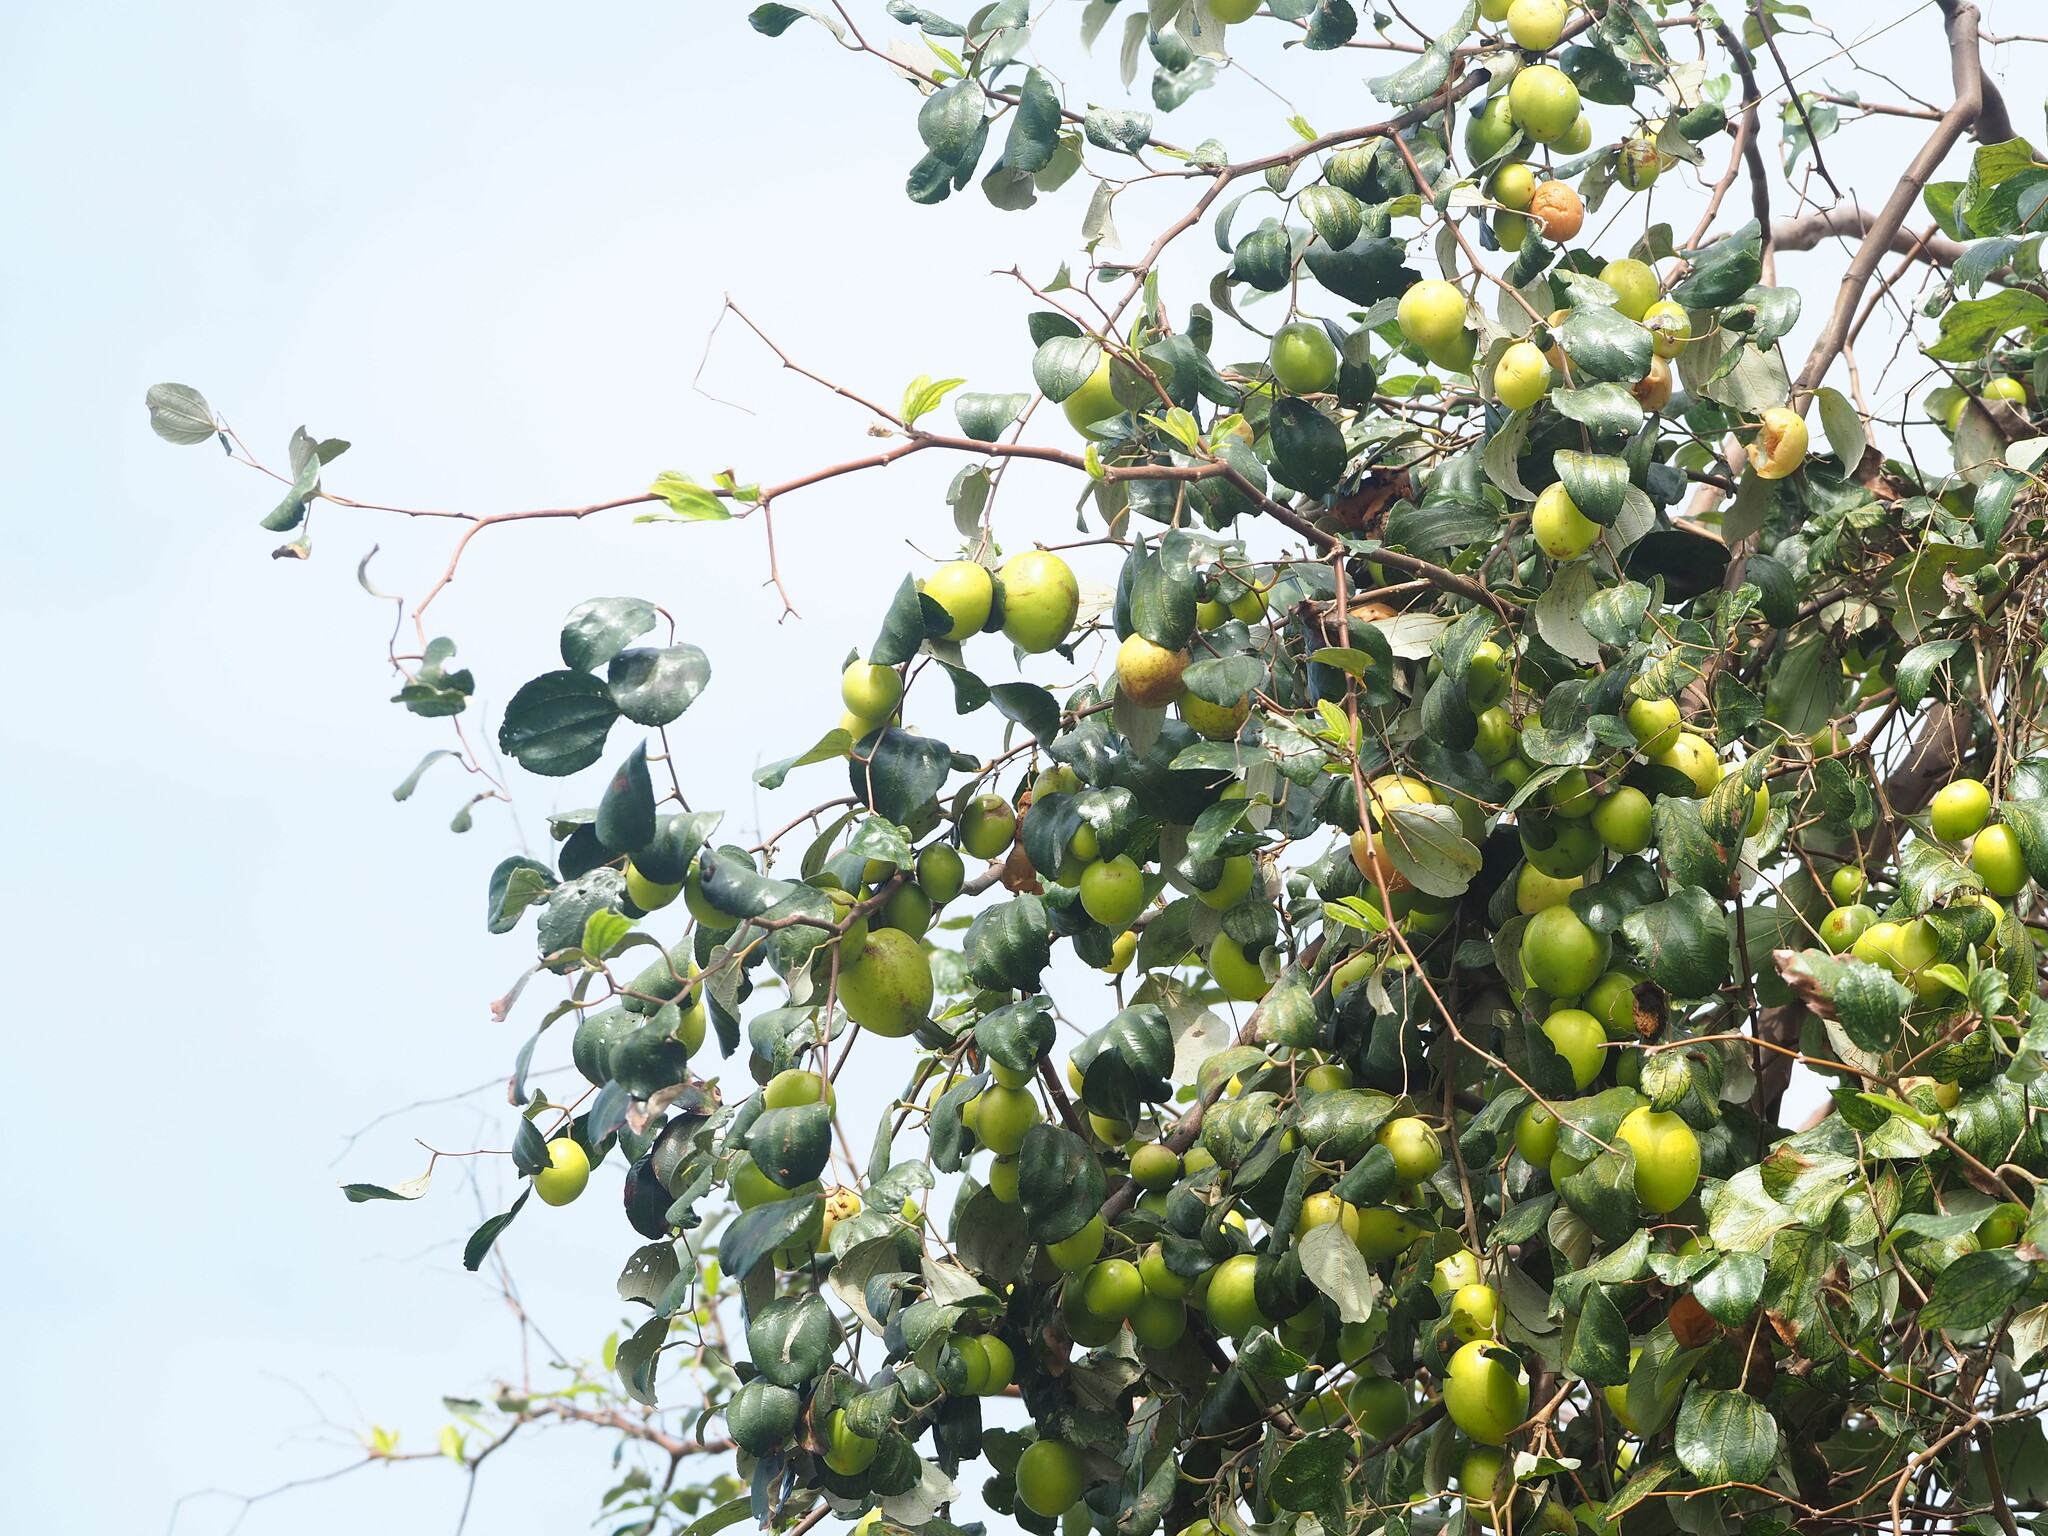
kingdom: Plantae
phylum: Tracheophyta
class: Magnoliopsida
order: Rosales
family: Rhamnaceae
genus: Ziziphus
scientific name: Ziziphus mauritiana
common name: Indian jujube
